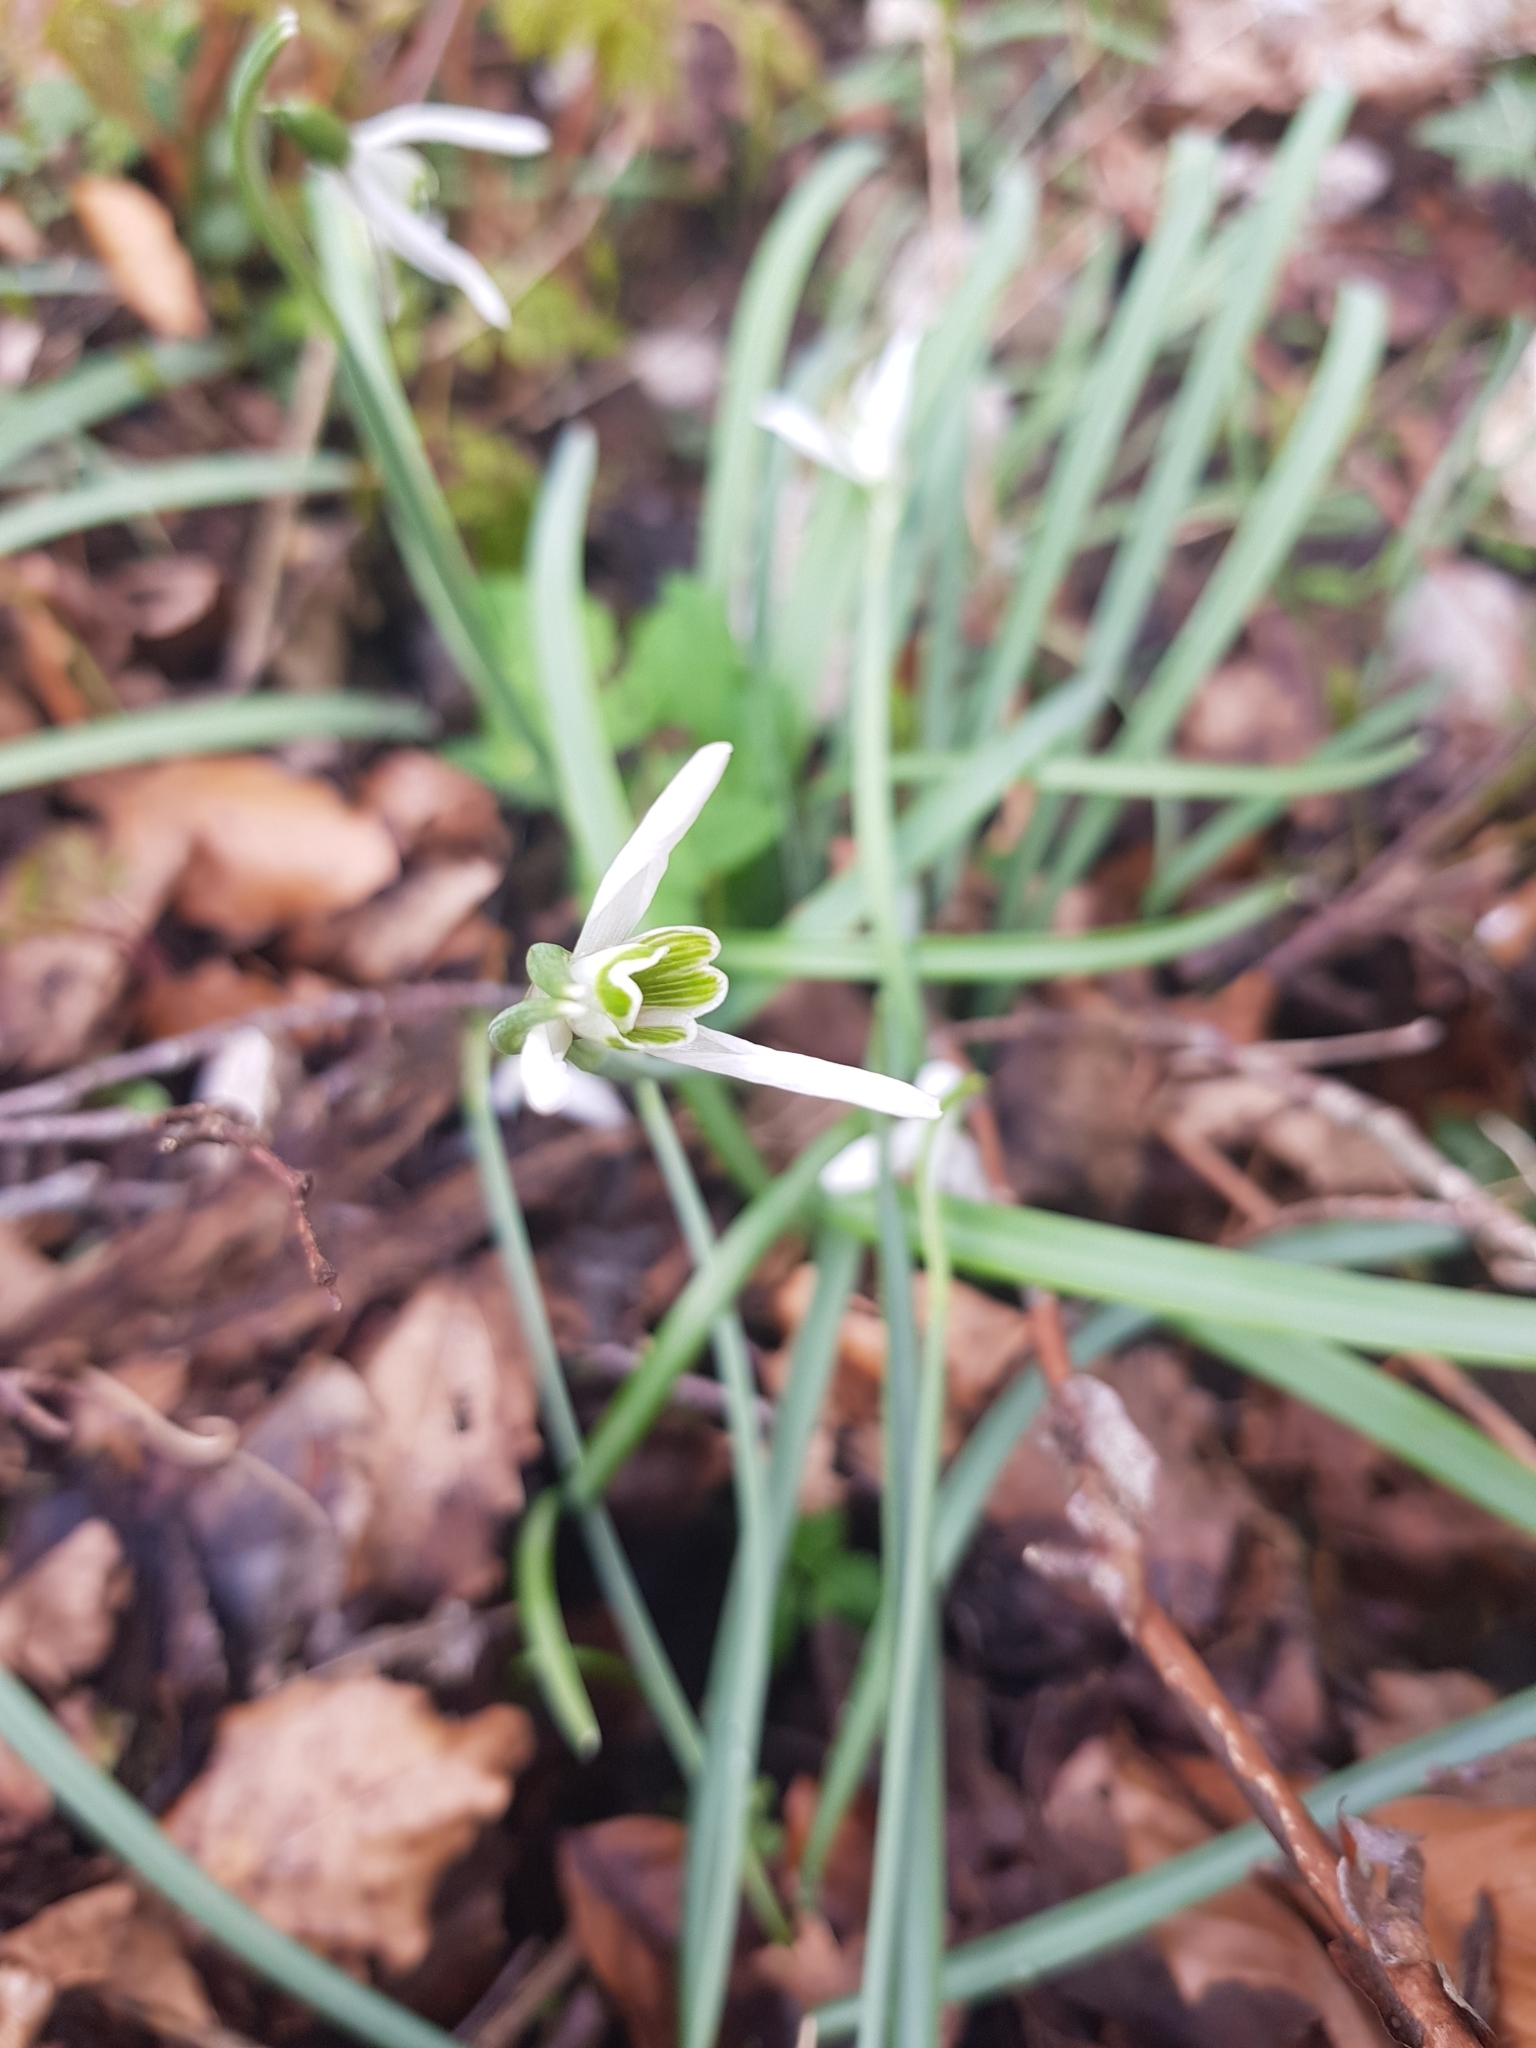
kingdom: Plantae
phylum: Tracheophyta
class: Liliopsida
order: Asparagales
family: Amaryllidaceae
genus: Galanthus
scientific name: Galanthus nivalis
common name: Snowdrop
